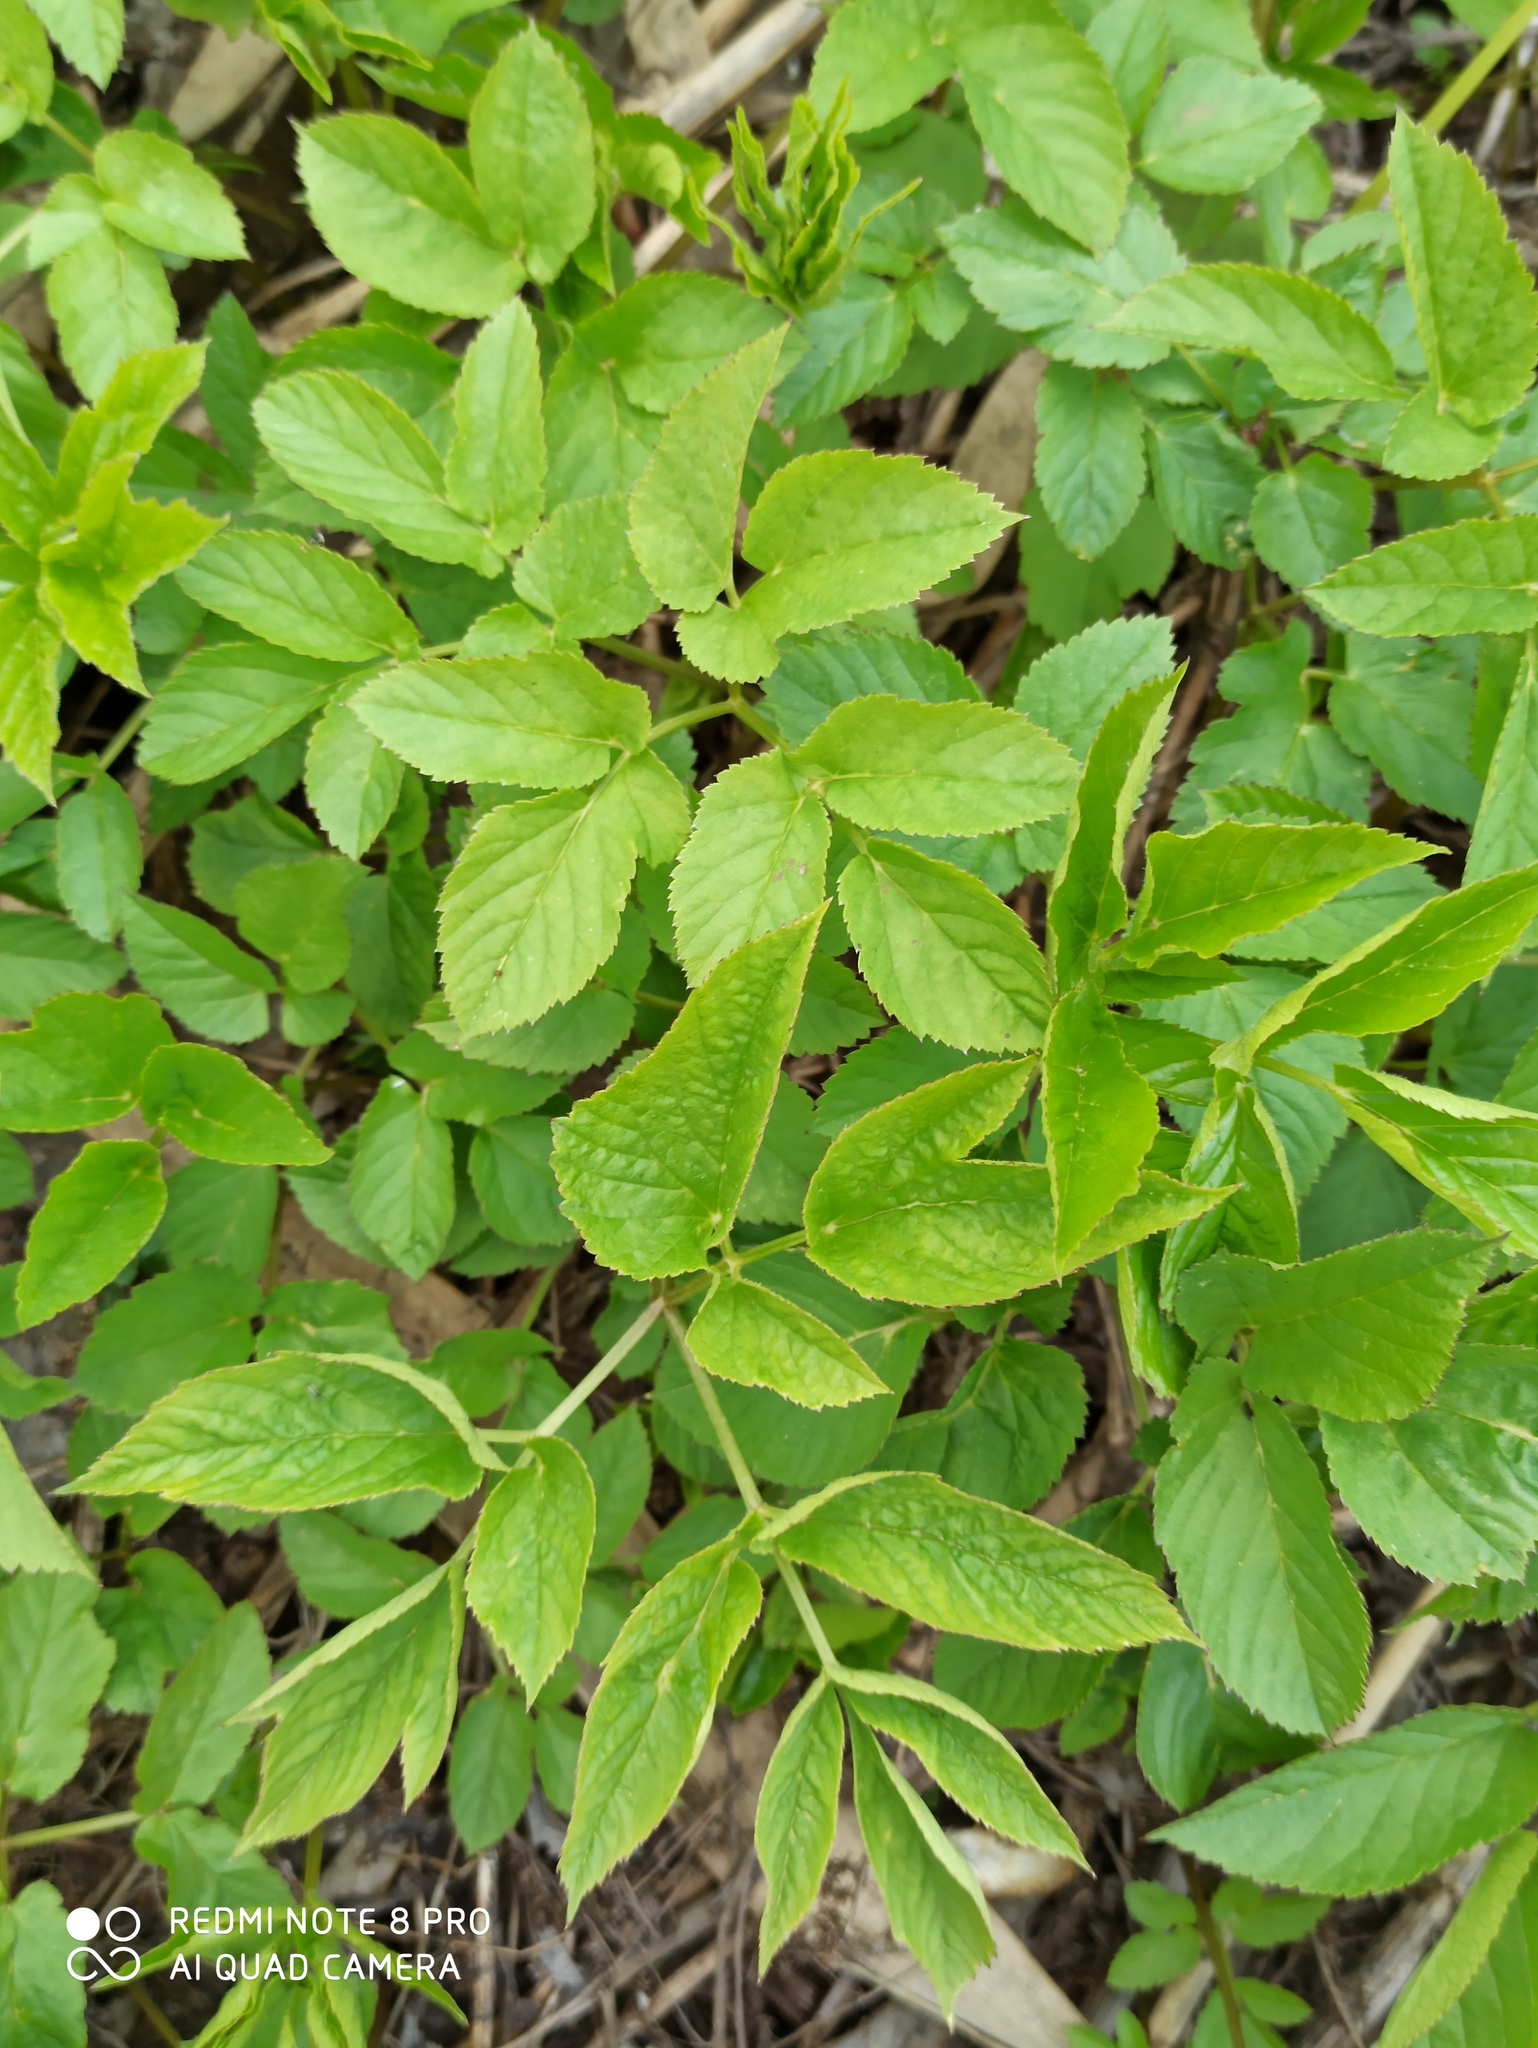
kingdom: Plantae
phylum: Tracheophyta
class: Magnoliopsida
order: Apiales
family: Apiaceae
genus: Aegopodium
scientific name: Aegopodium podagraria
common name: Ground-elder
